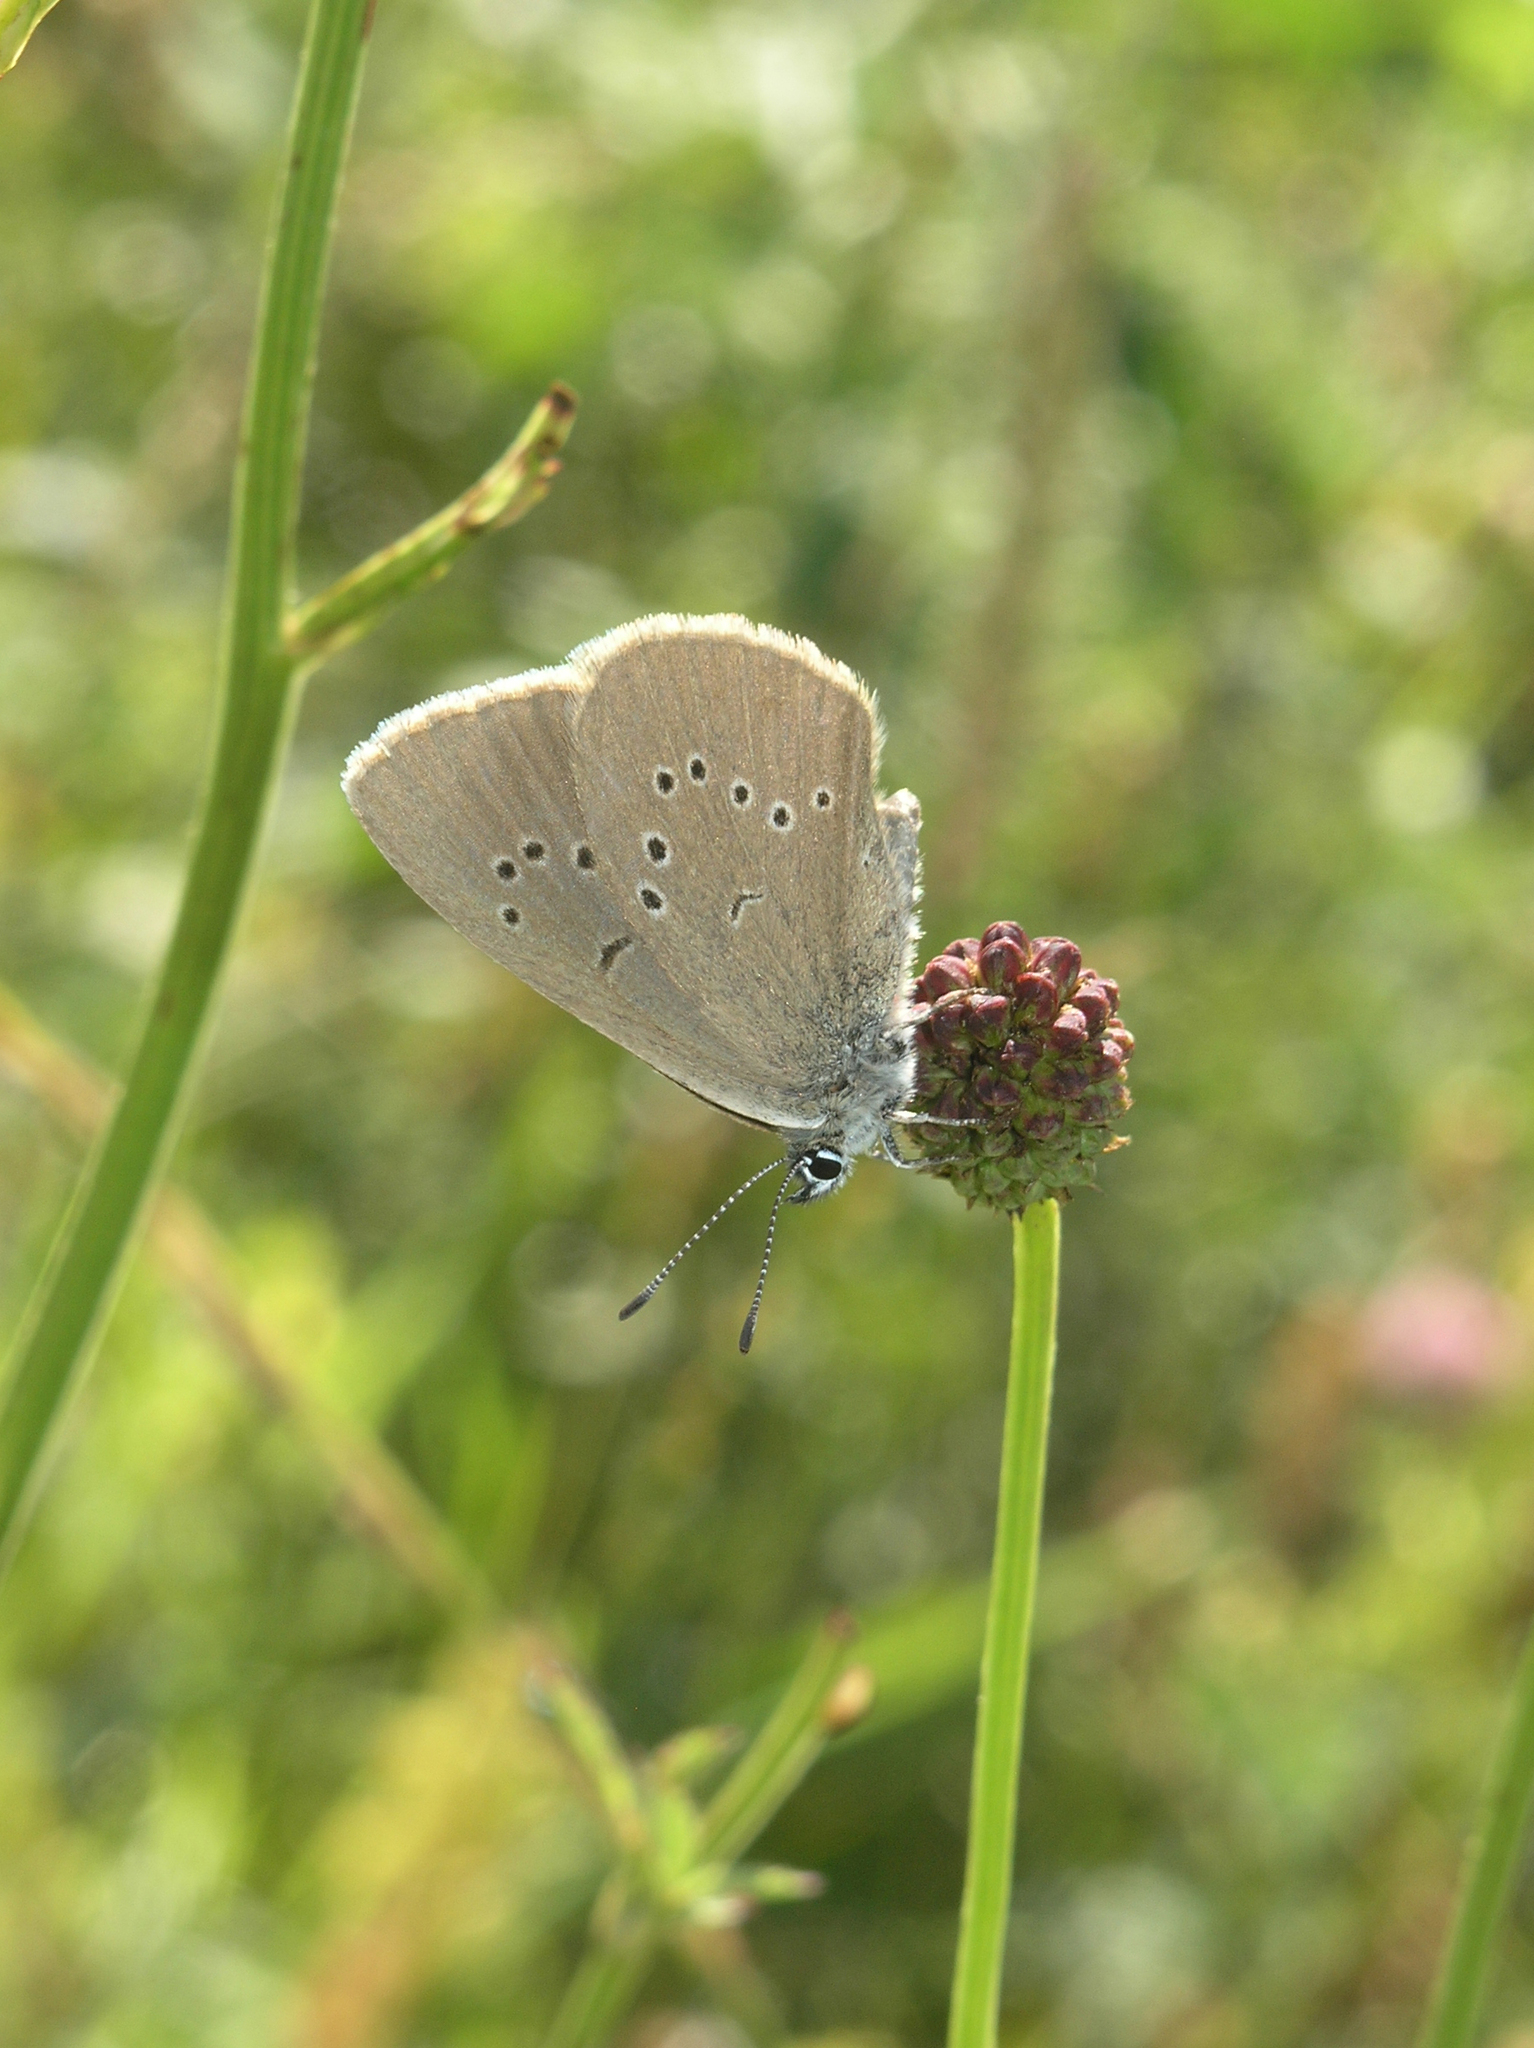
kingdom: Plantae
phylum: Tracheophyta
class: Magnoliopsida
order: Rosales
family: Rosaceae
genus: Sanguisorba
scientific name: Sanguisorba officinalis
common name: Great burnet
